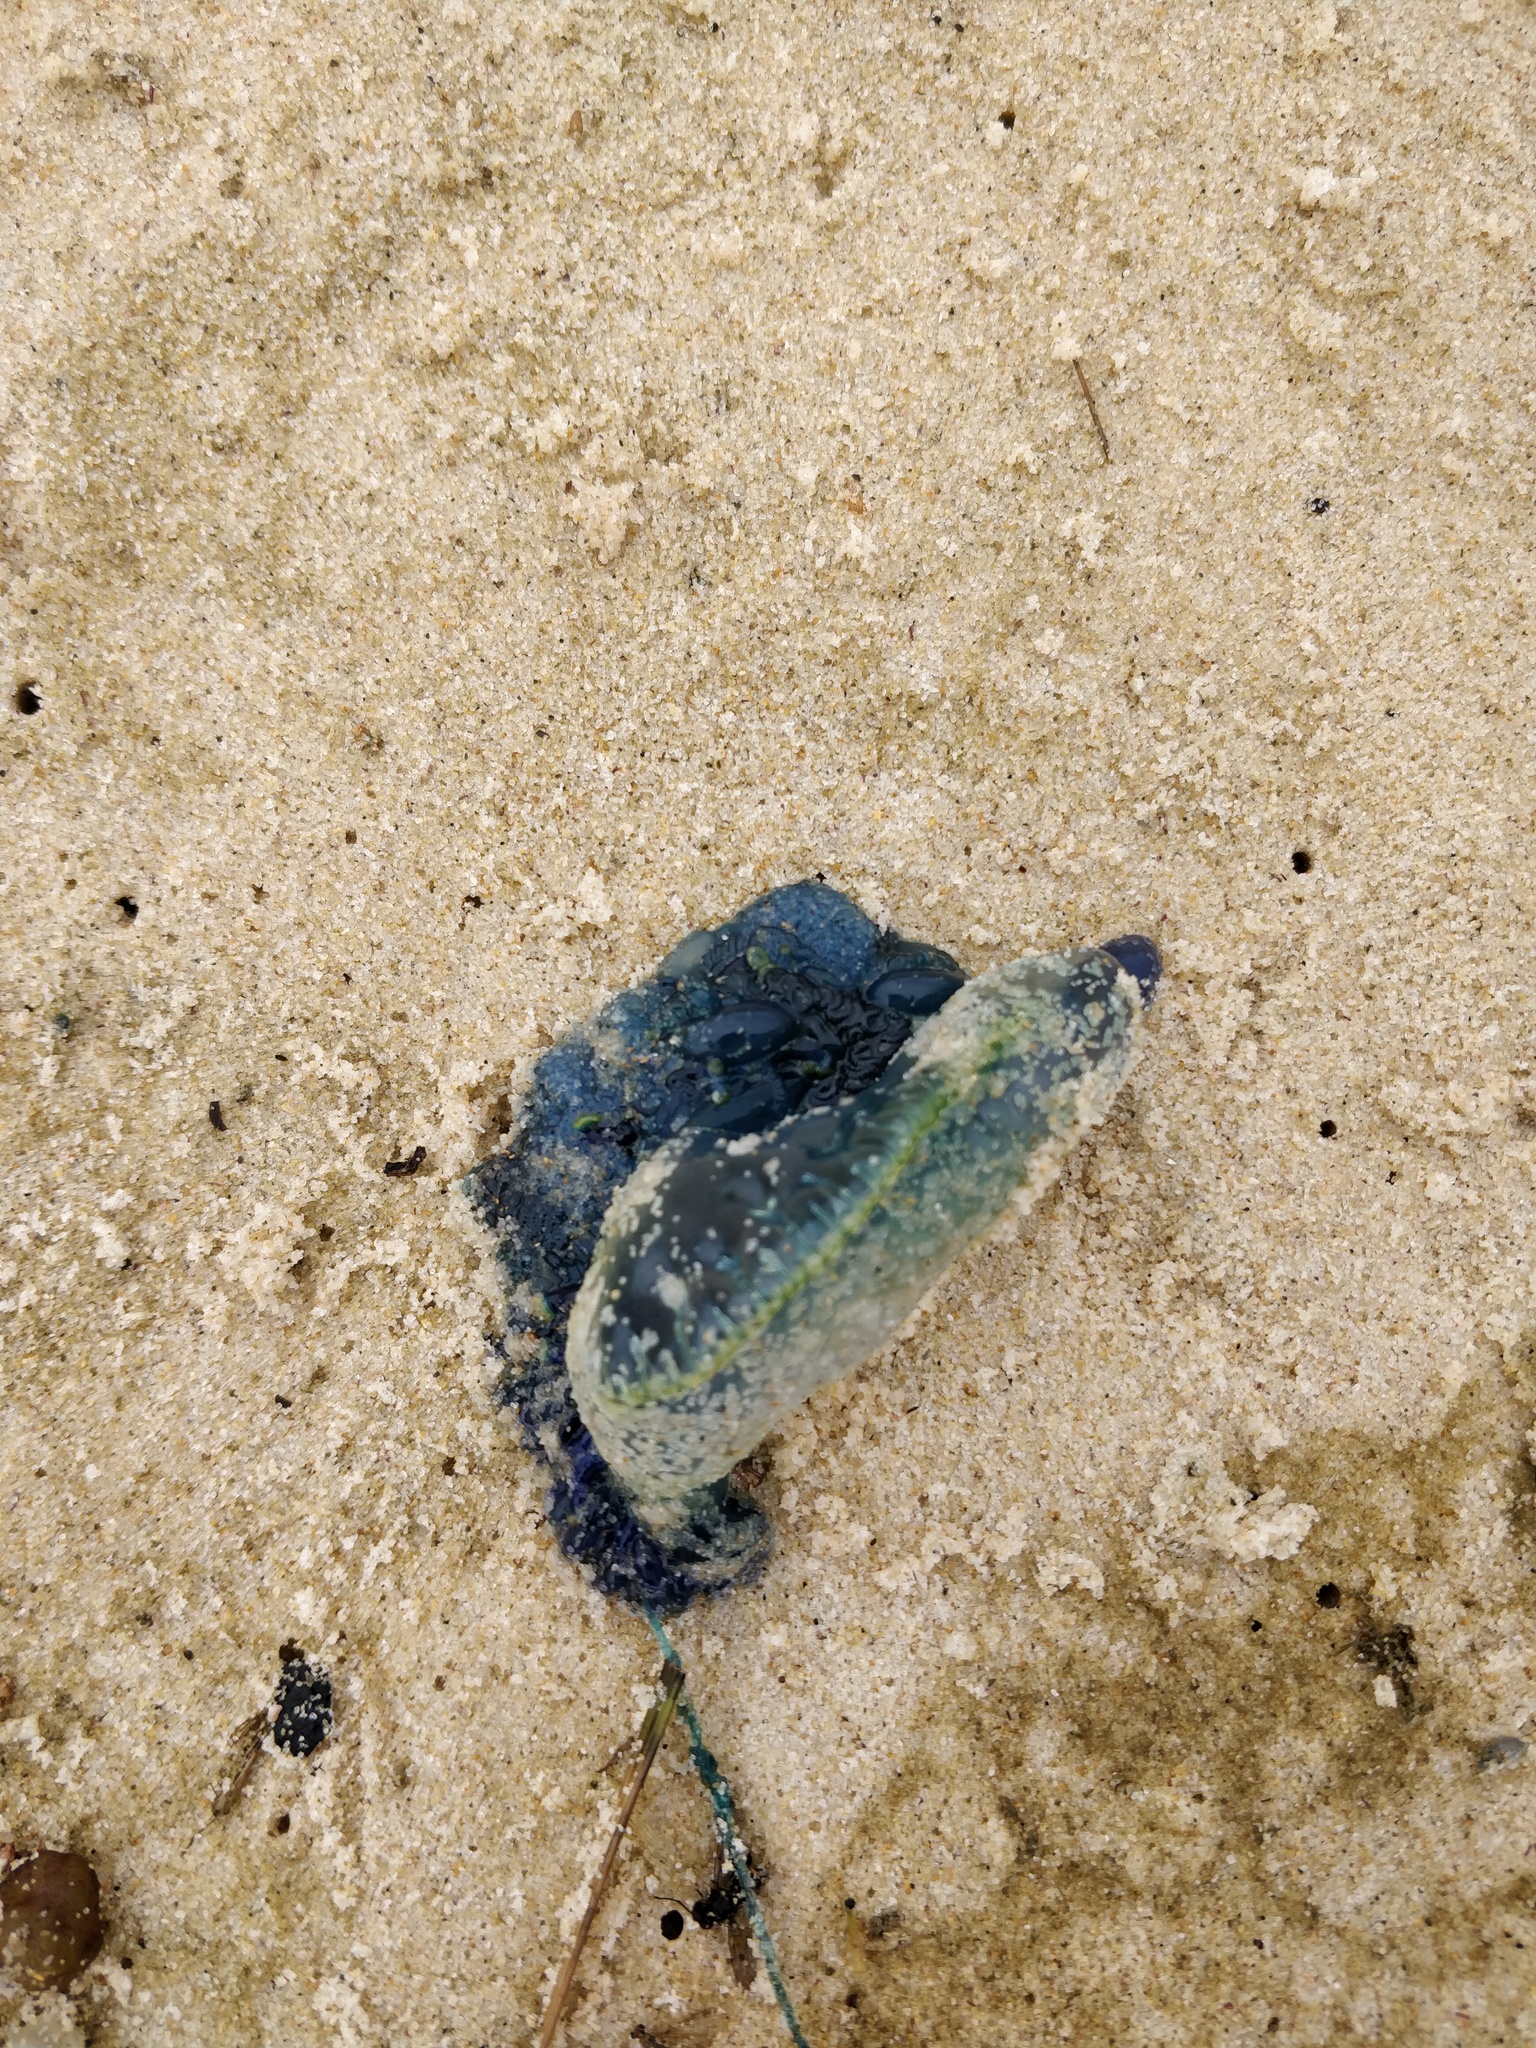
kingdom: Animalia
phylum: Cnidaria
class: Hydrozoa
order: Siphonophorae
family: Physaliidae
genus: Physalia
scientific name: Physalia physalis
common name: Portuguese man-of-war
